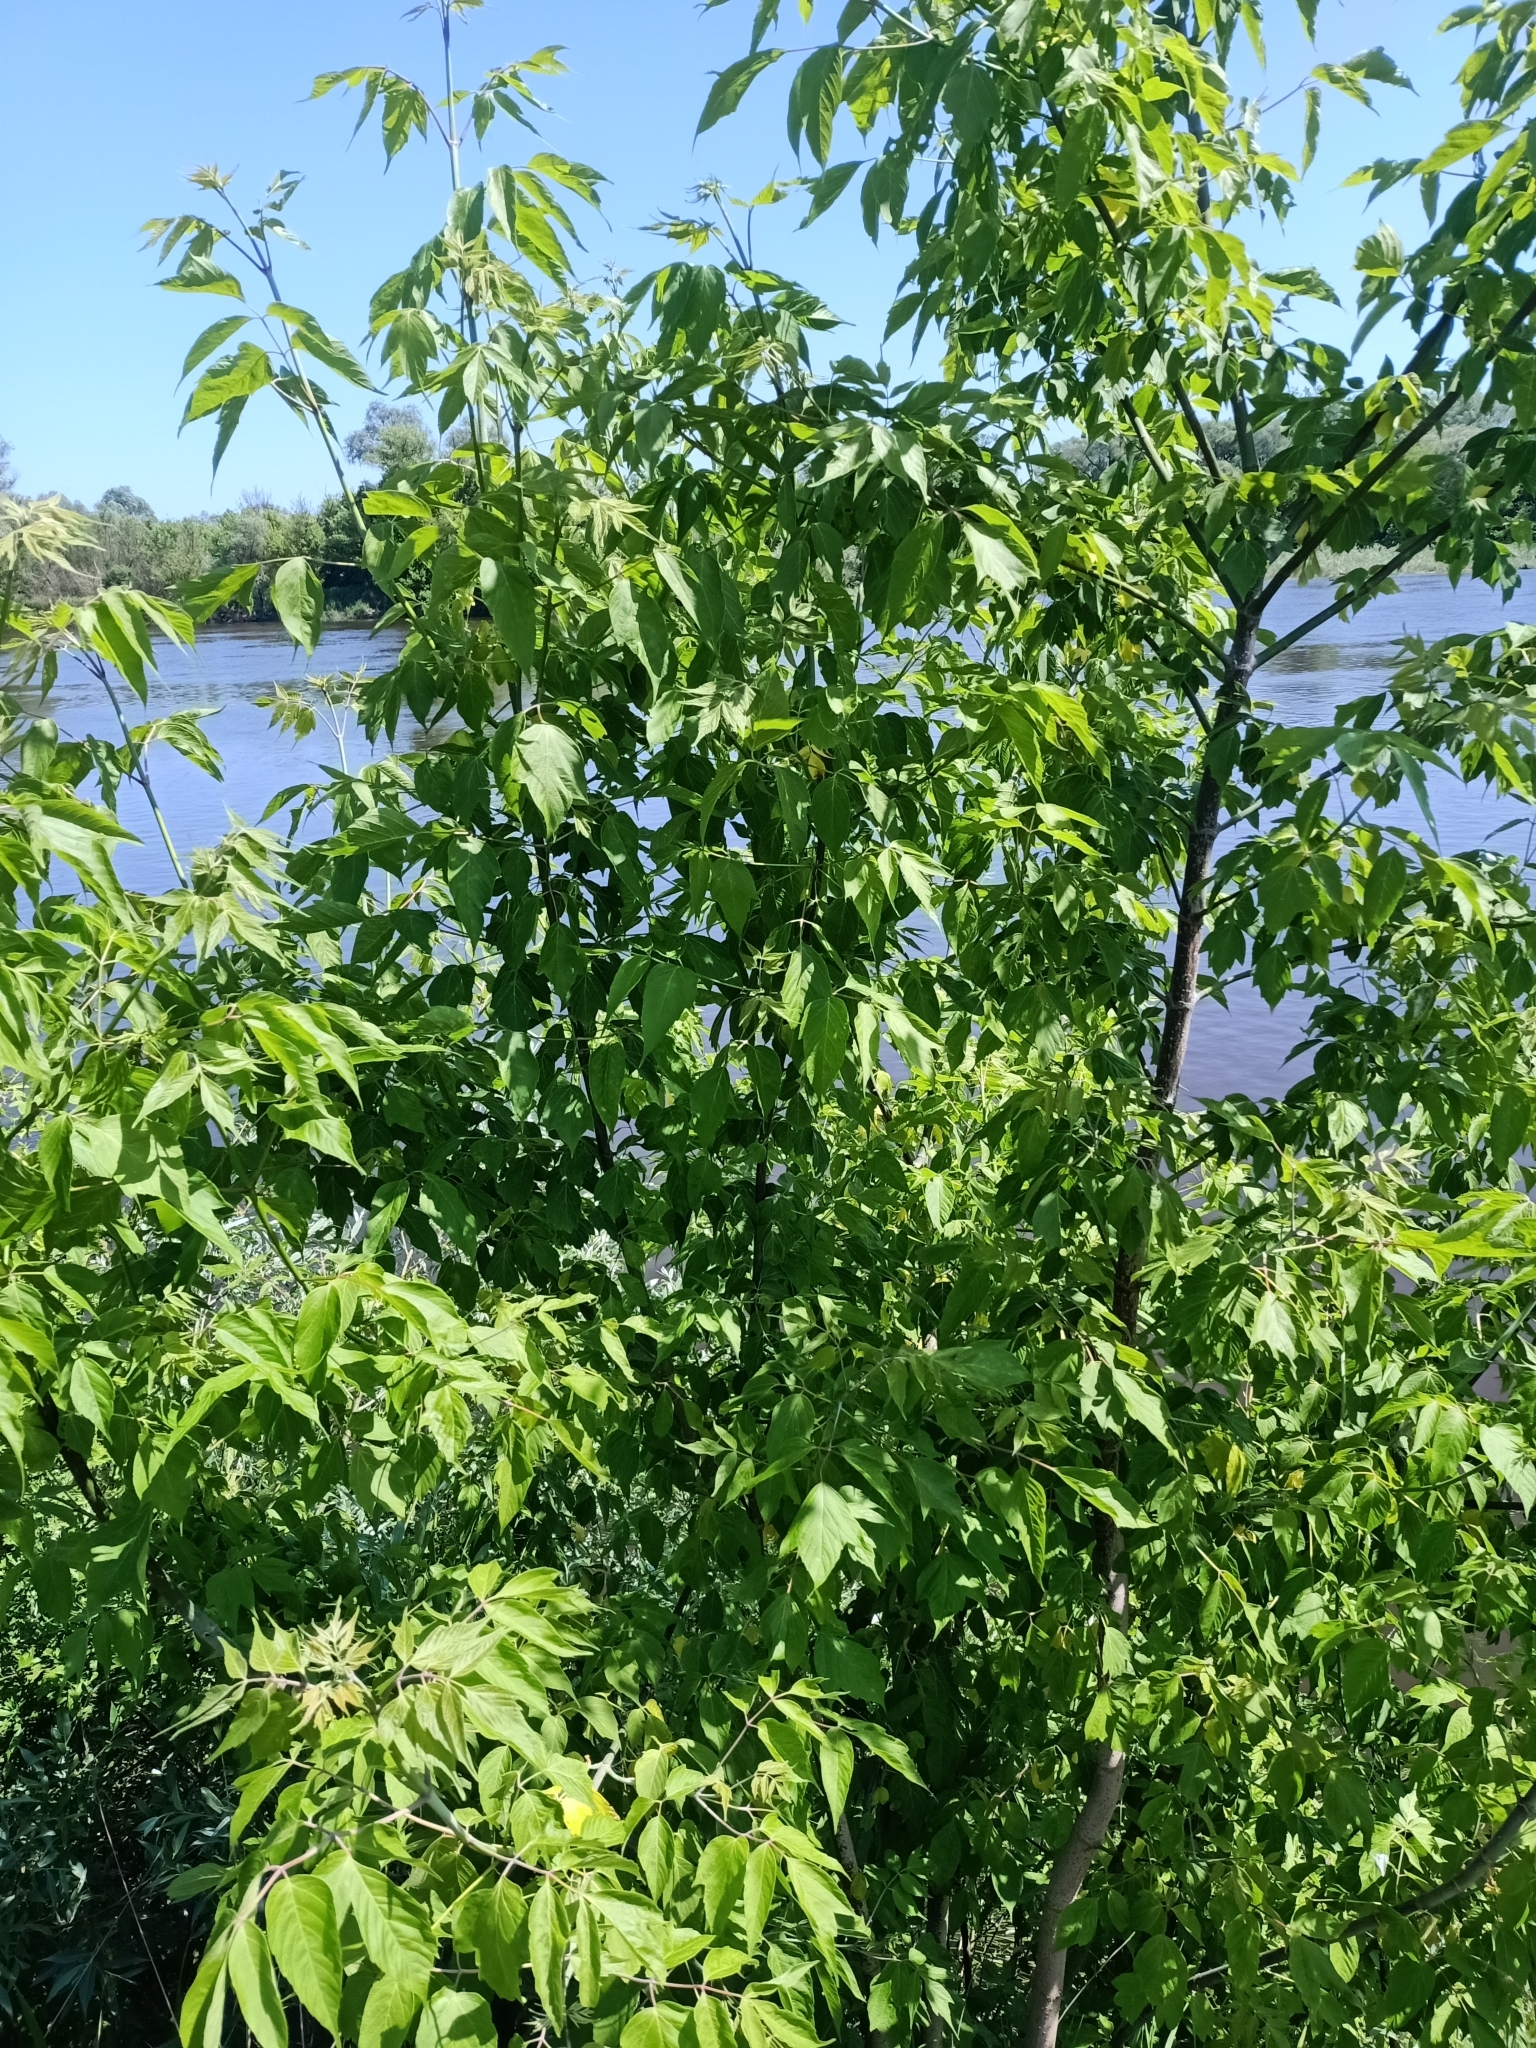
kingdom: Plantae
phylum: Tracheophyta
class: Magnoliopsida
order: Sapindales
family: Sapindaceae
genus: Acer
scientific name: Acer negundo
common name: Ashleaf maple
